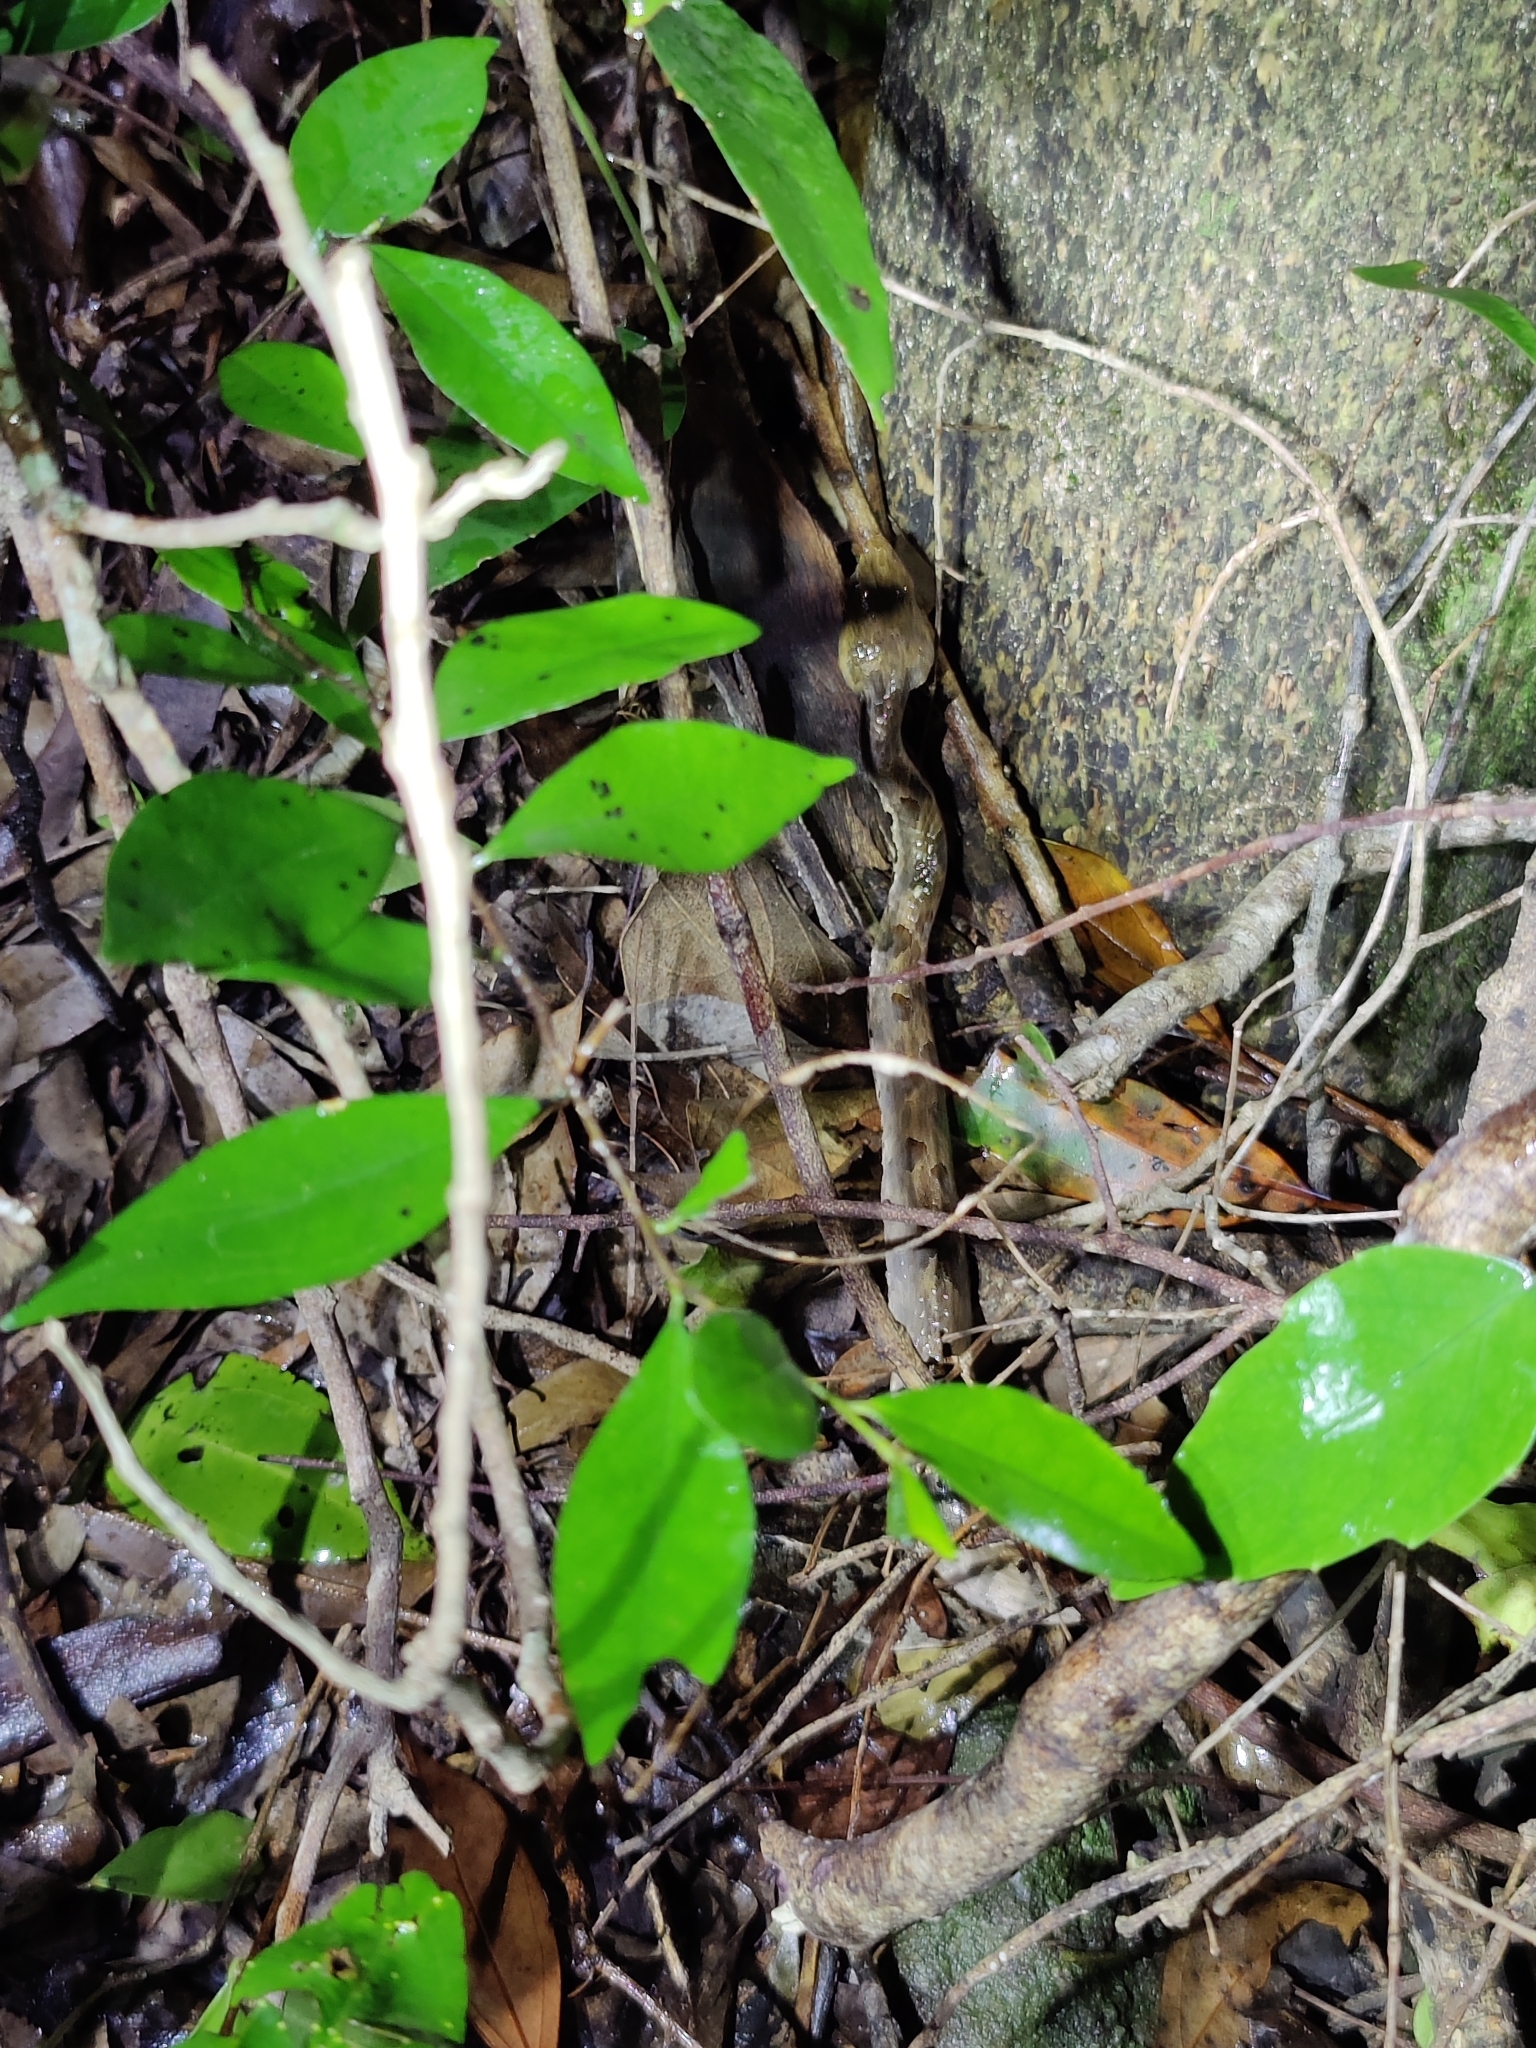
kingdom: Animalia
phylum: Chordata
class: Squamata
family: Viperidae
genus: Hypnale
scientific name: Hypnale hypnale
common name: Hump-nosed moccasin
